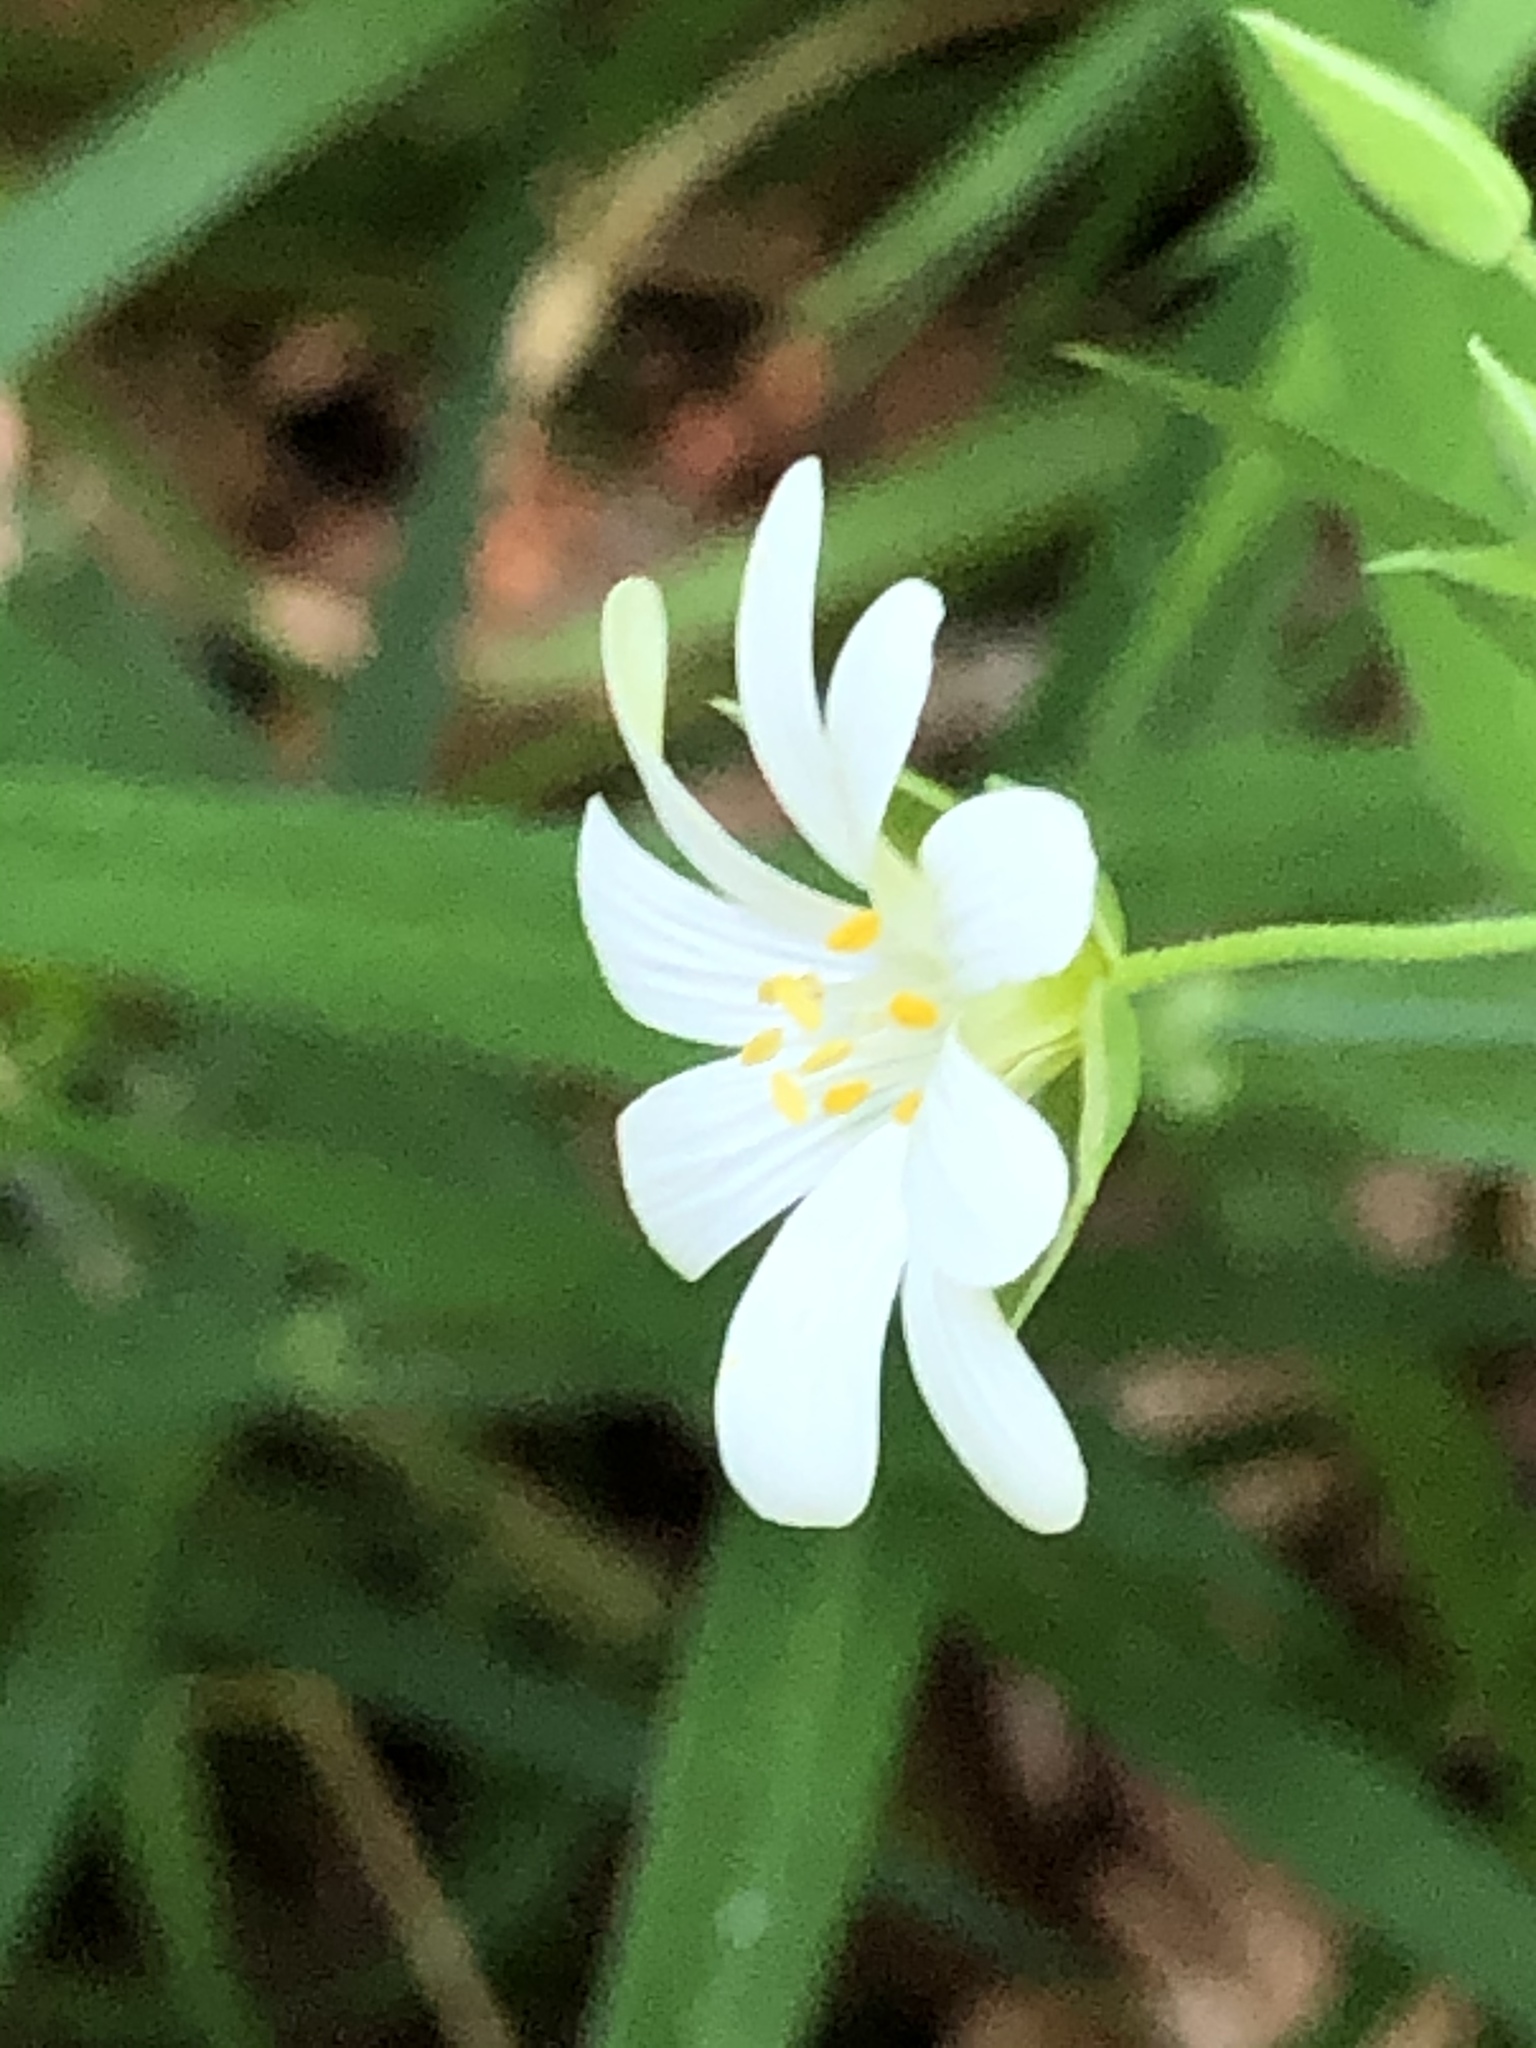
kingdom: Plantae
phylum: Tracheophyta
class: Magnoliopsida
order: Caryophyllales
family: Caryophyllaceae
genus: Rabelera
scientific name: Rabelera holostea
